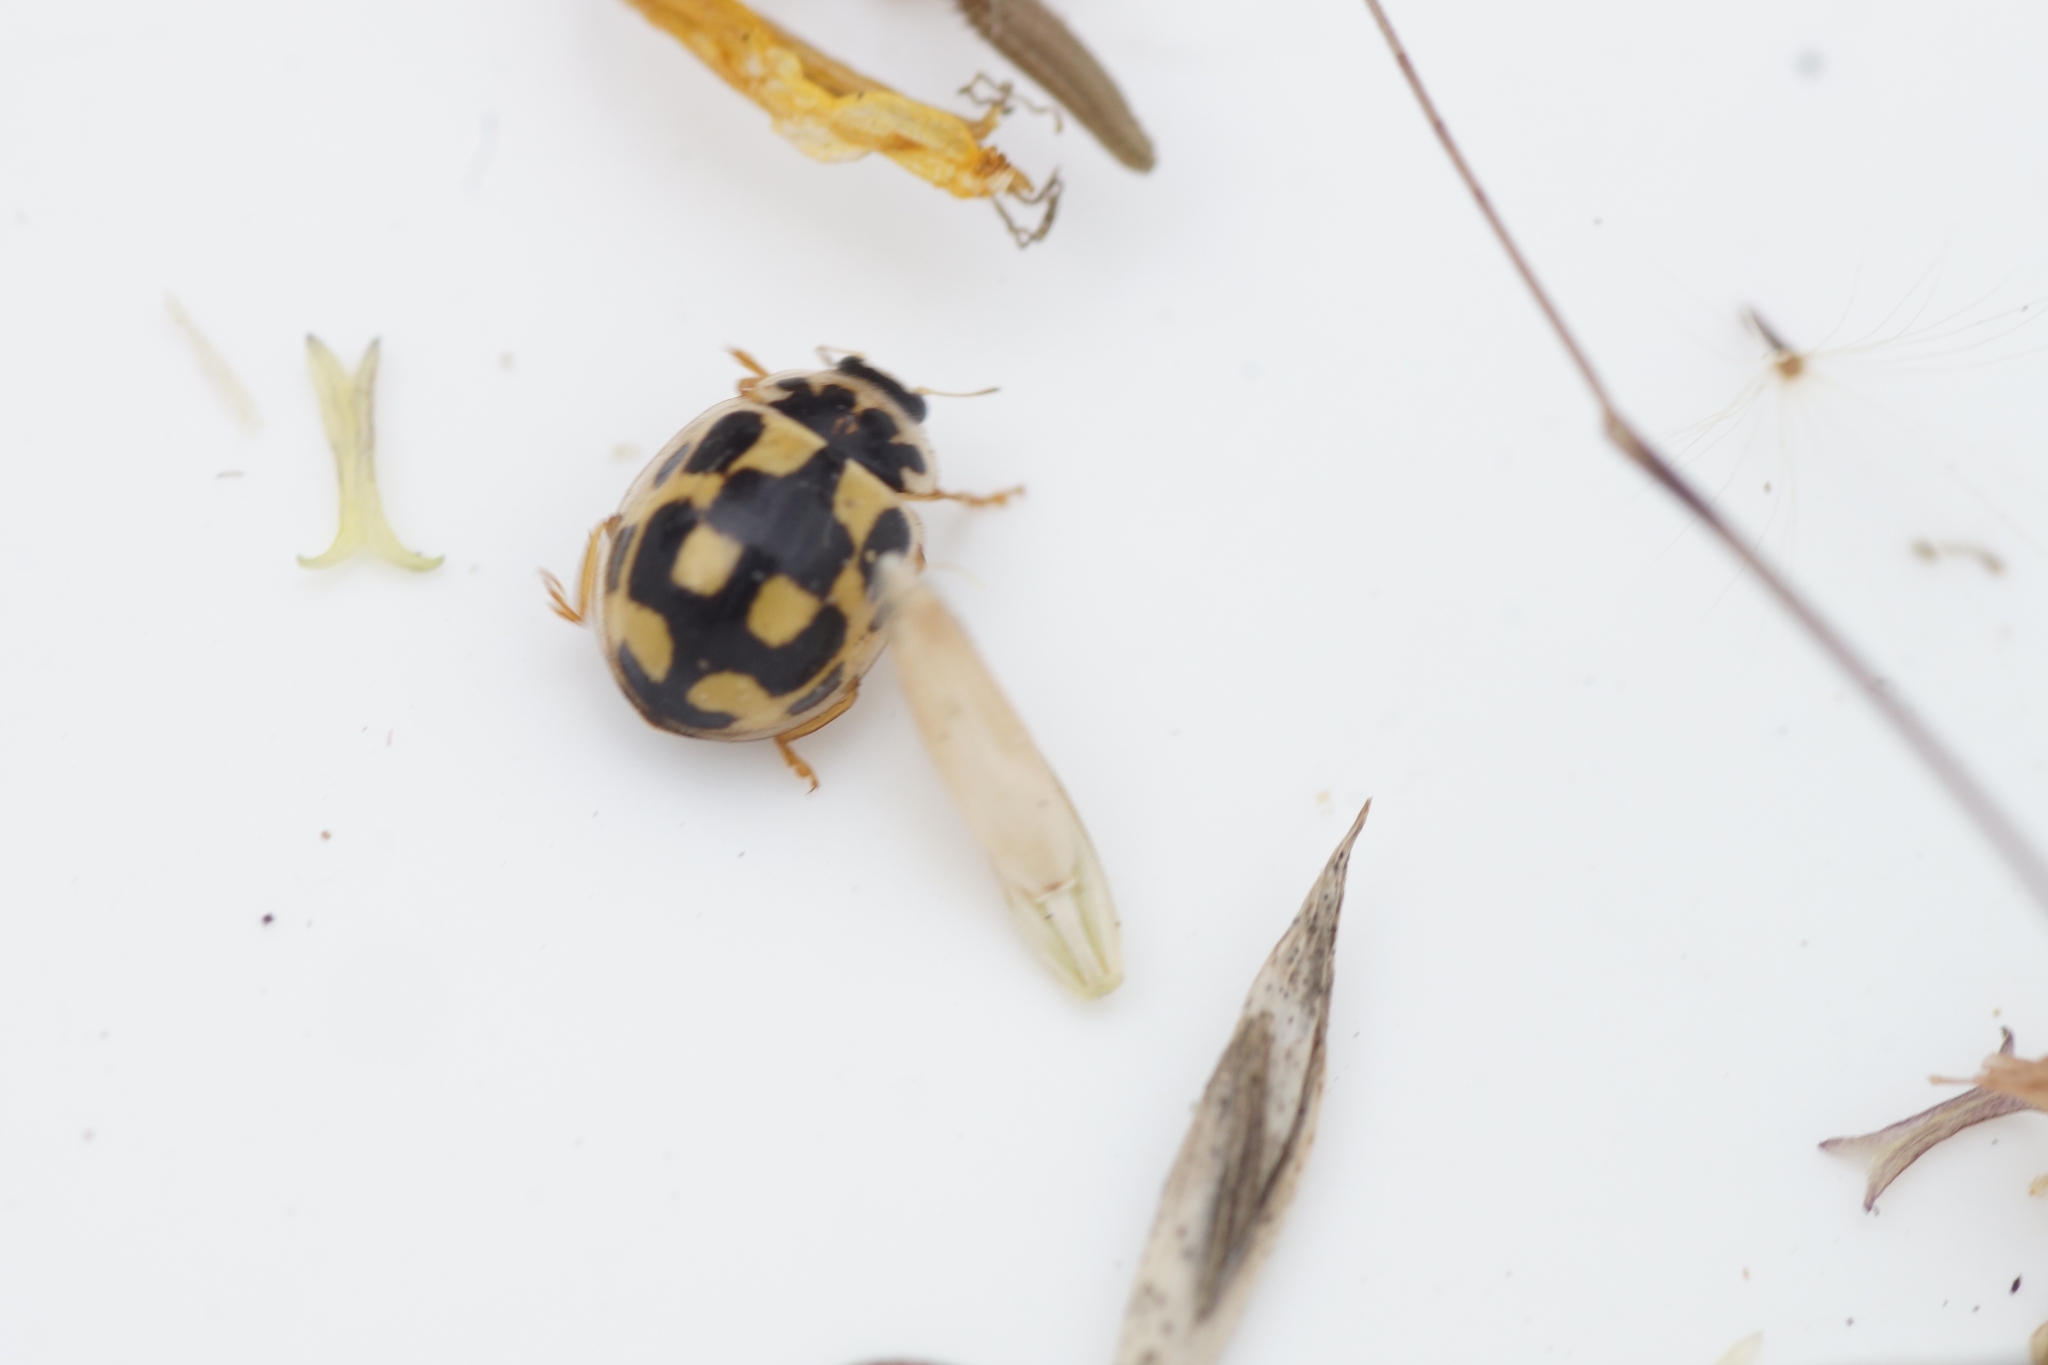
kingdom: Animalia
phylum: Arthropoda
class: Insecta
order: Coleoptera
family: Coccinellidae
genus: Propylaea
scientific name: Propylaea quatuordecimpunctata
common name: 14-spotted ladybird beetle
